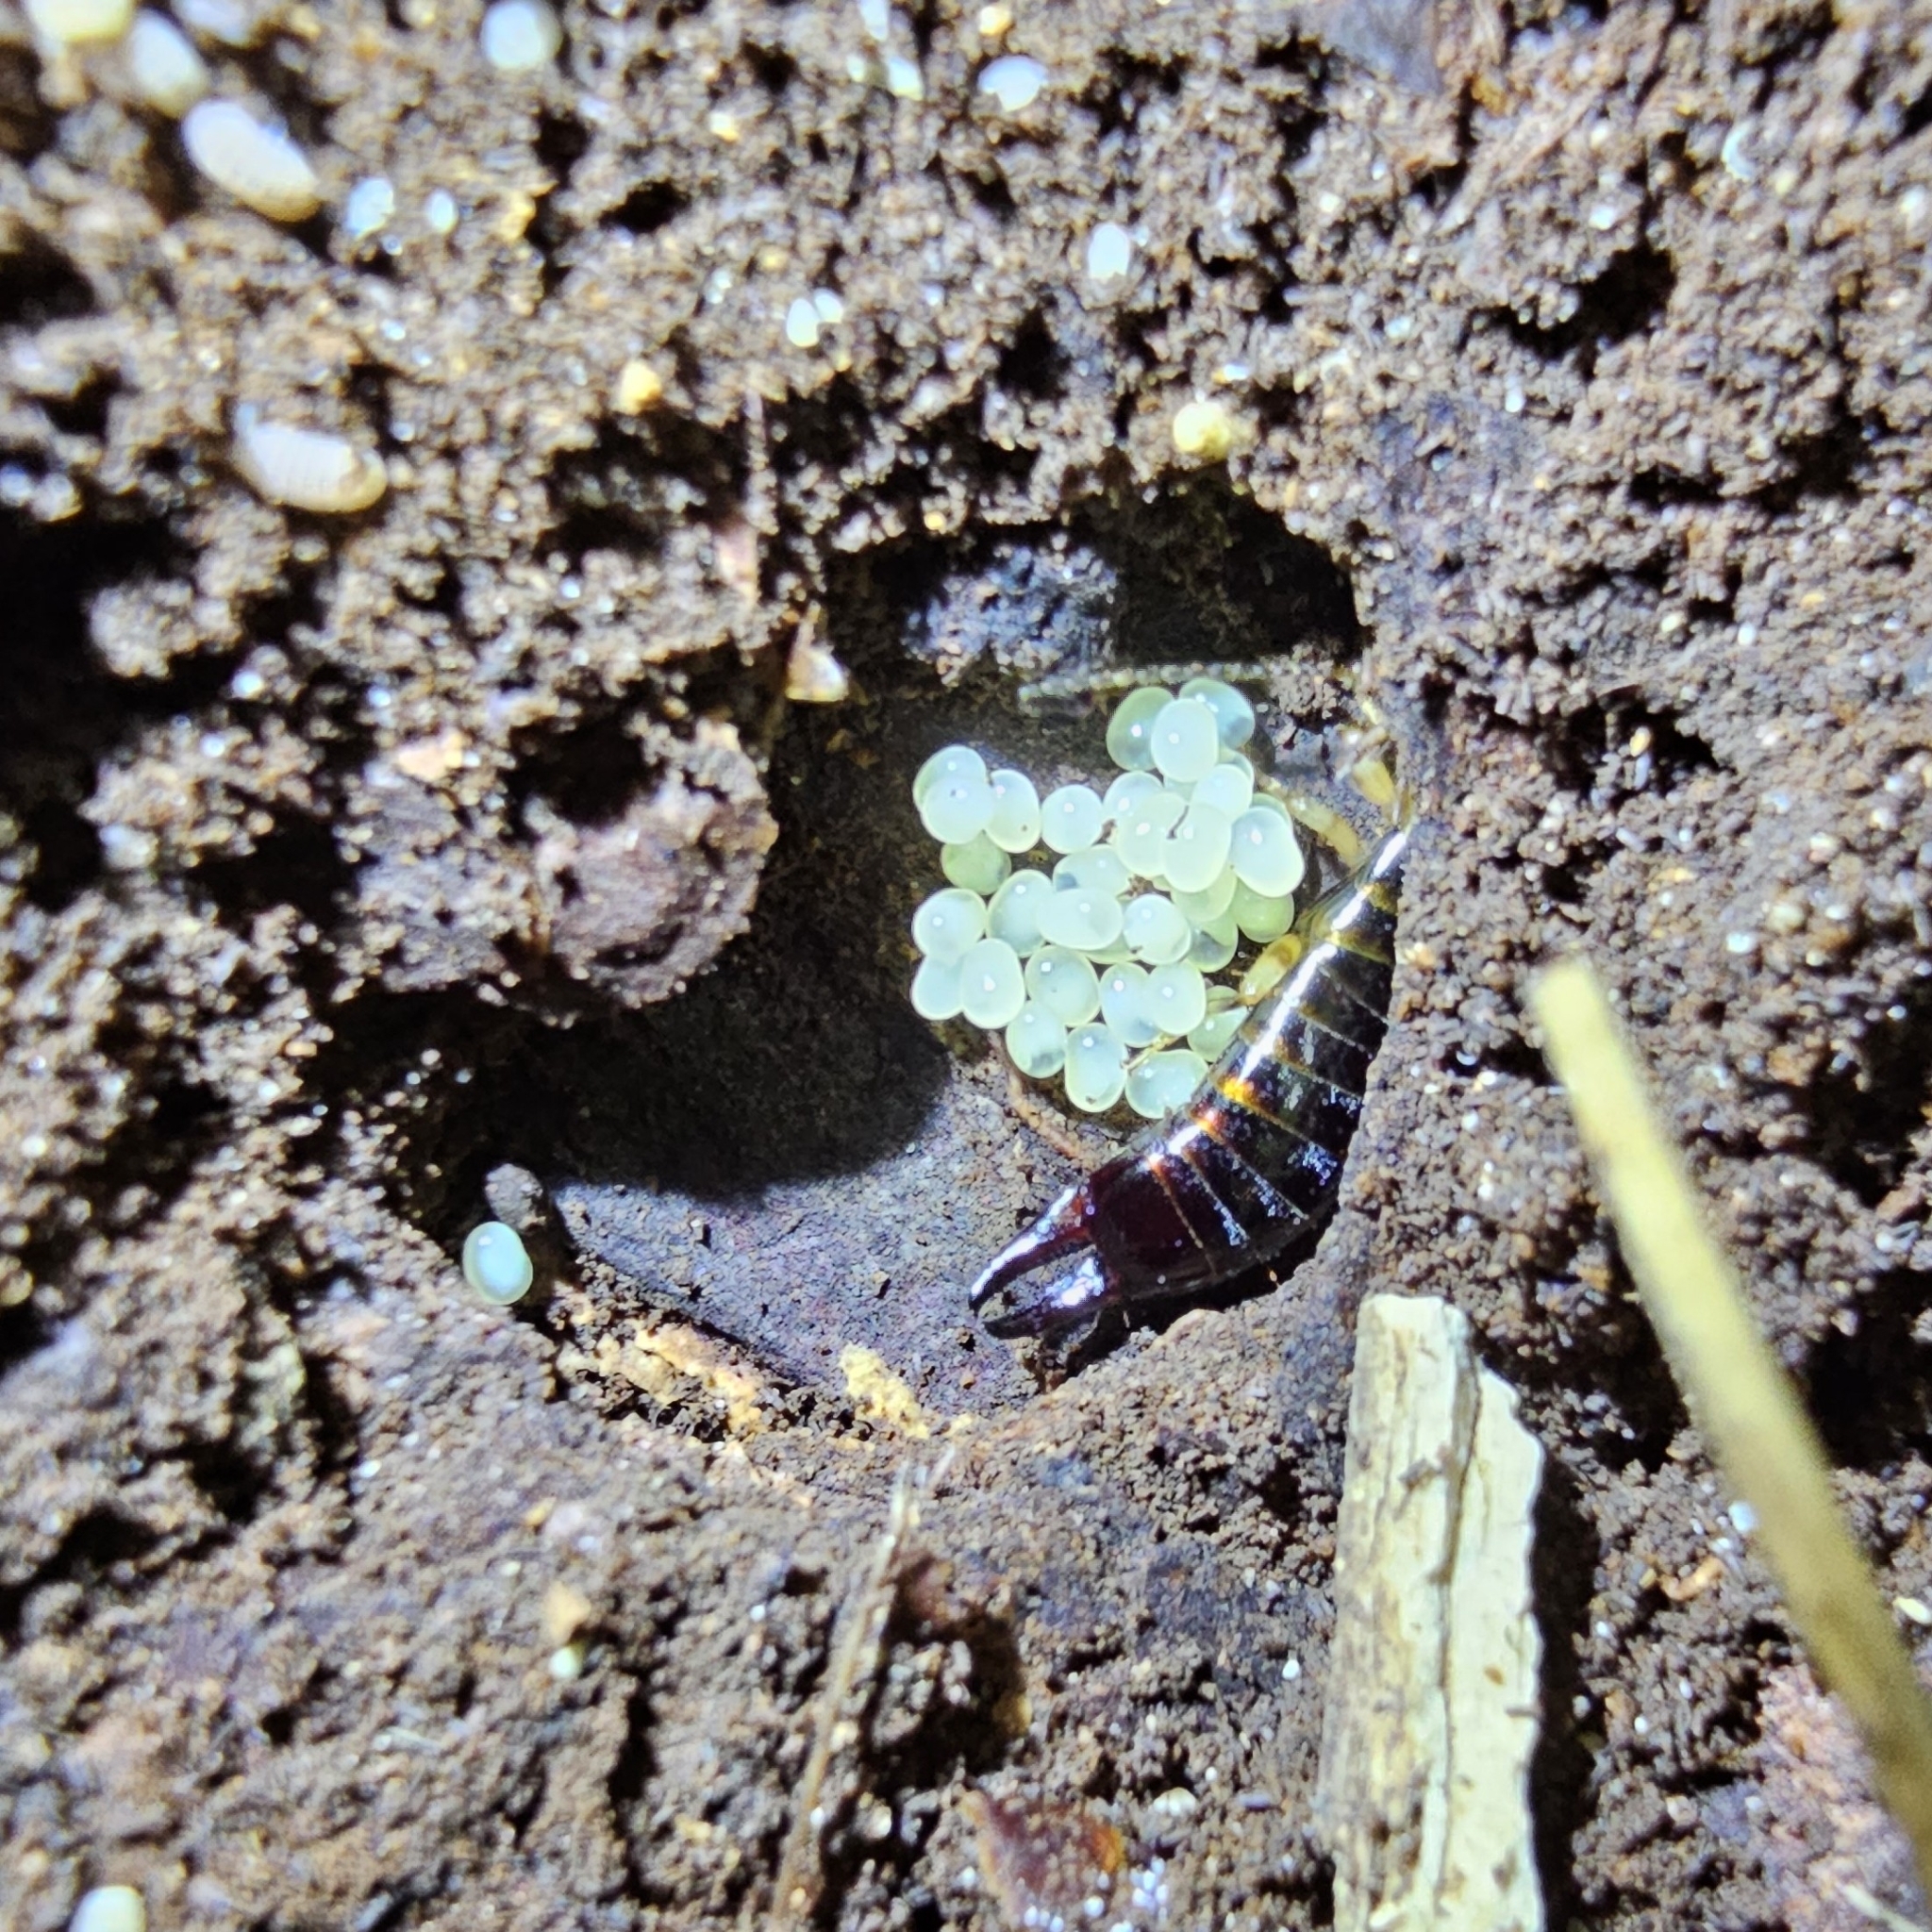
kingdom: Animalia
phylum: Arthropoda
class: Insecta
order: Dermaptera
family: Anisolabididae
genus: Euborellia
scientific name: Euborellia annulipes
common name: Ringlegged earwig
